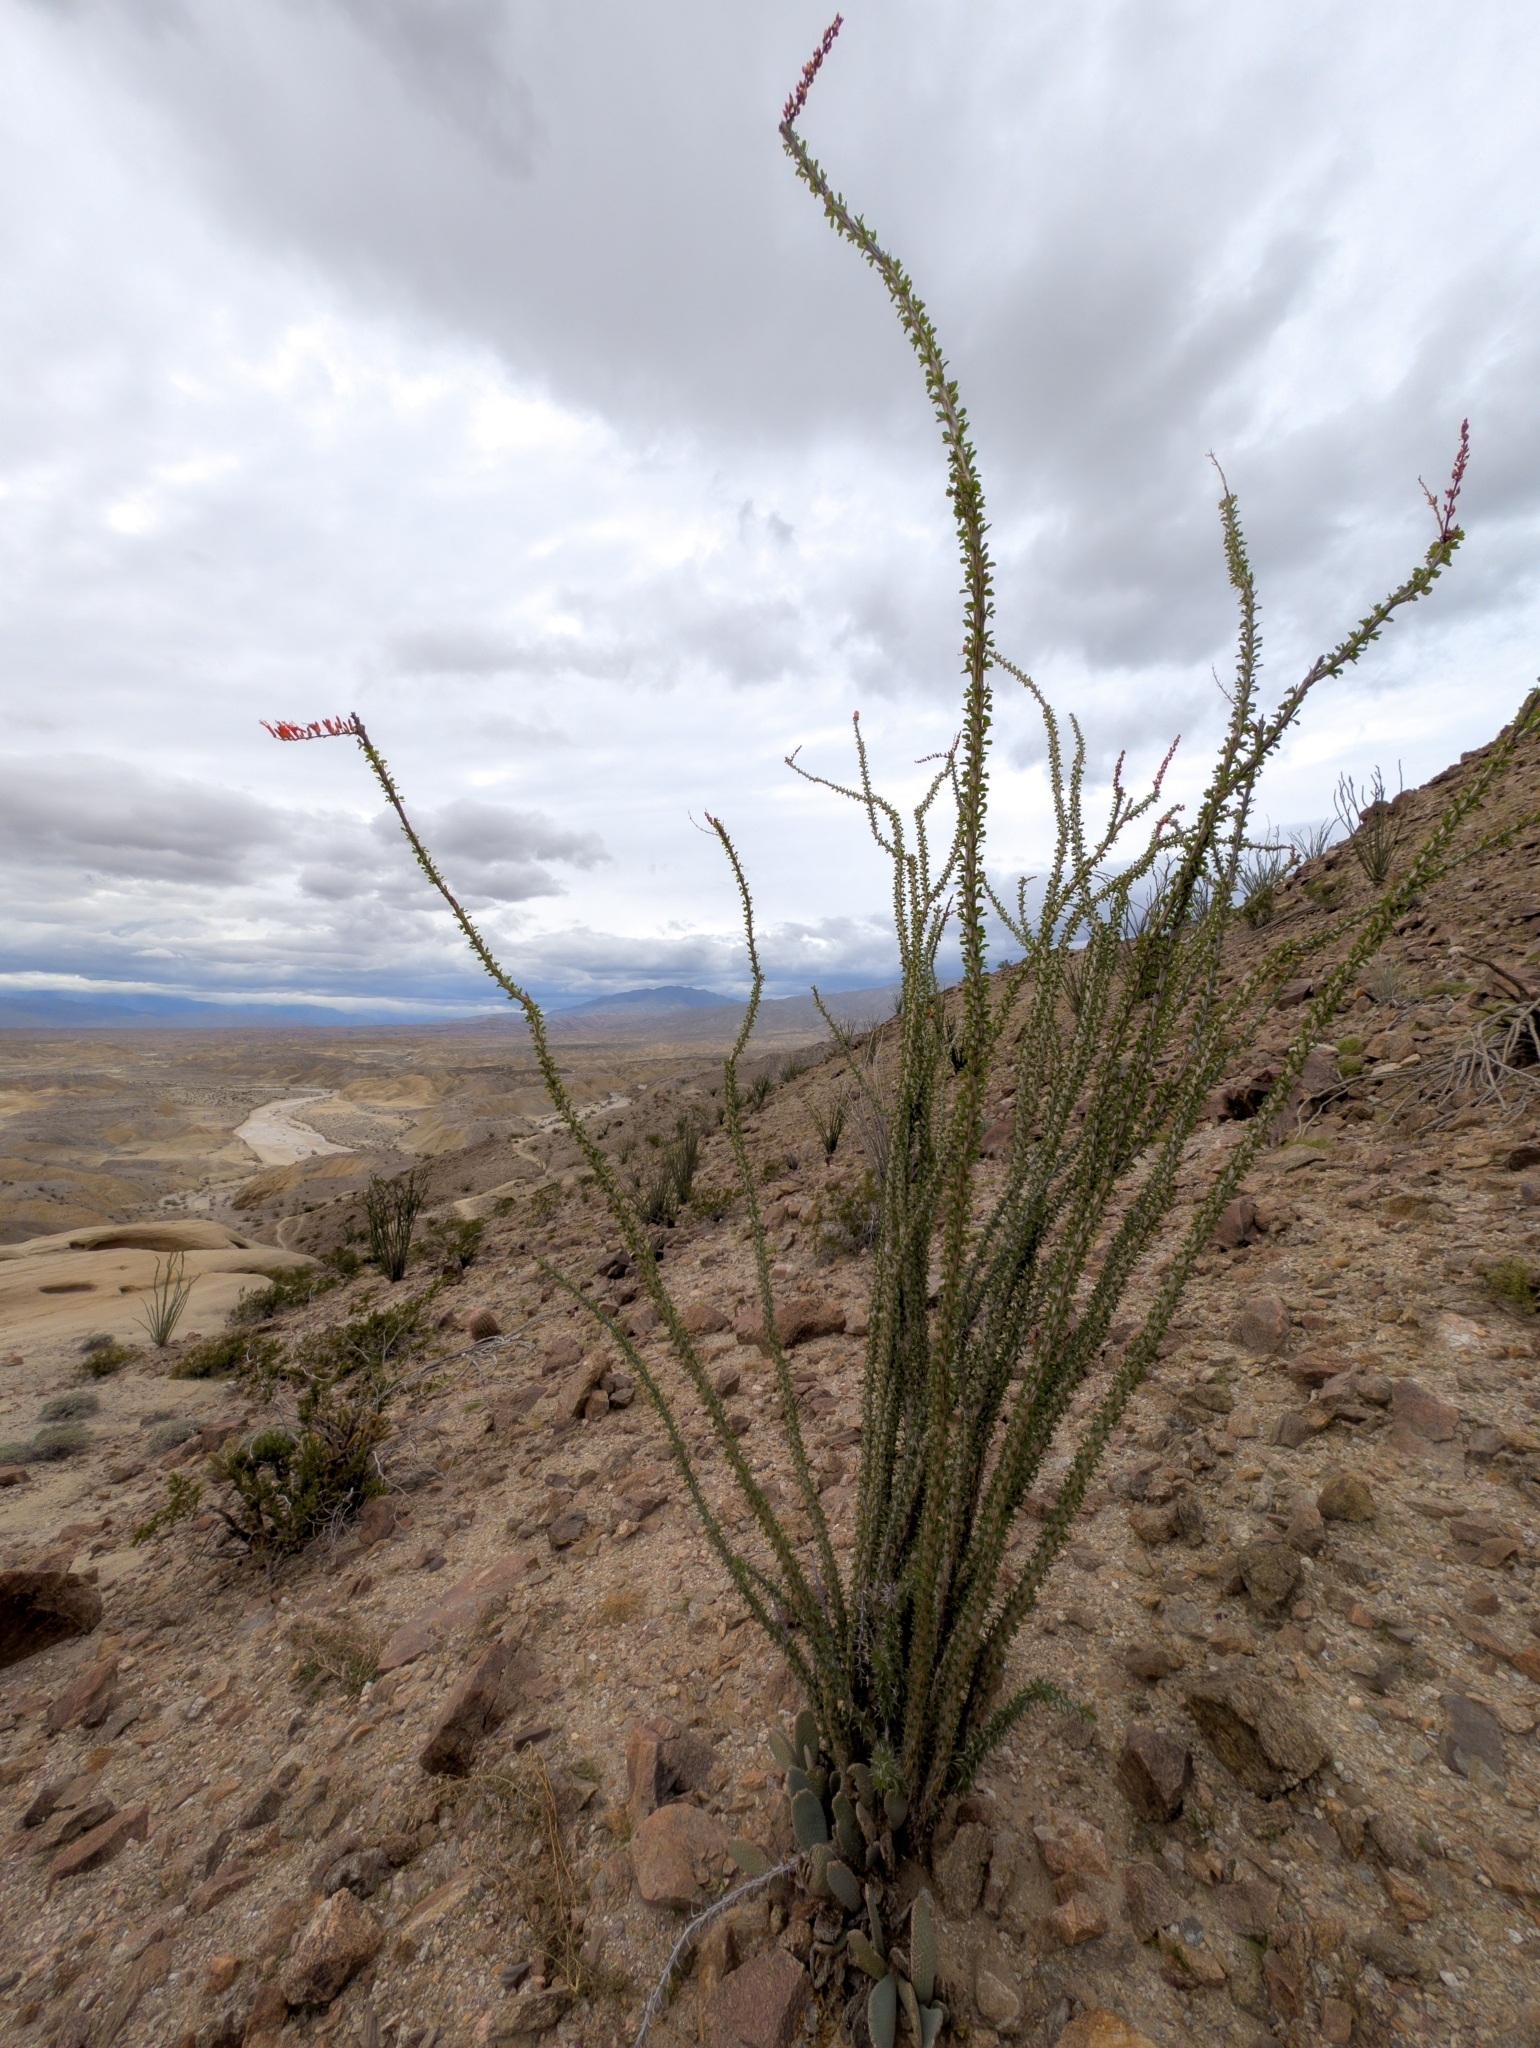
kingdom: Plantae
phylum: Tracheophyta
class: Magnoliopsida
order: Ericales
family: Fouquieriaceae
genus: Fouquieria
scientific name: Fouquieria splendens
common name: Vine-cactus
